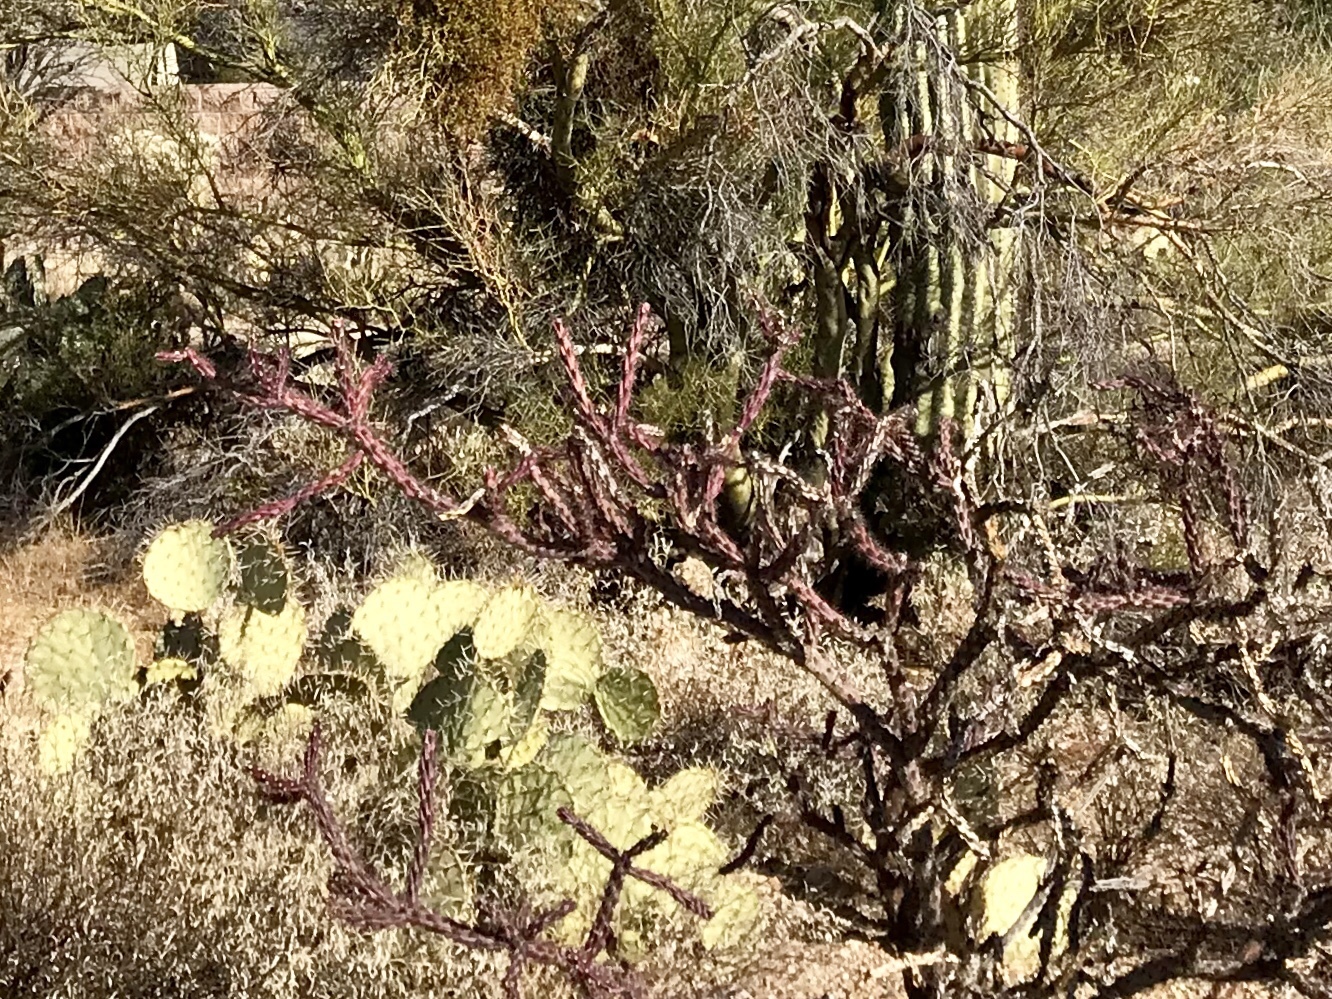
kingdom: Plantae
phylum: Tracheophyta
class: Magnoliopsida
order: Caryophyllales
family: Cactaceae
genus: Cylindropuntia
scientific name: Cylindropuntia thurberi
